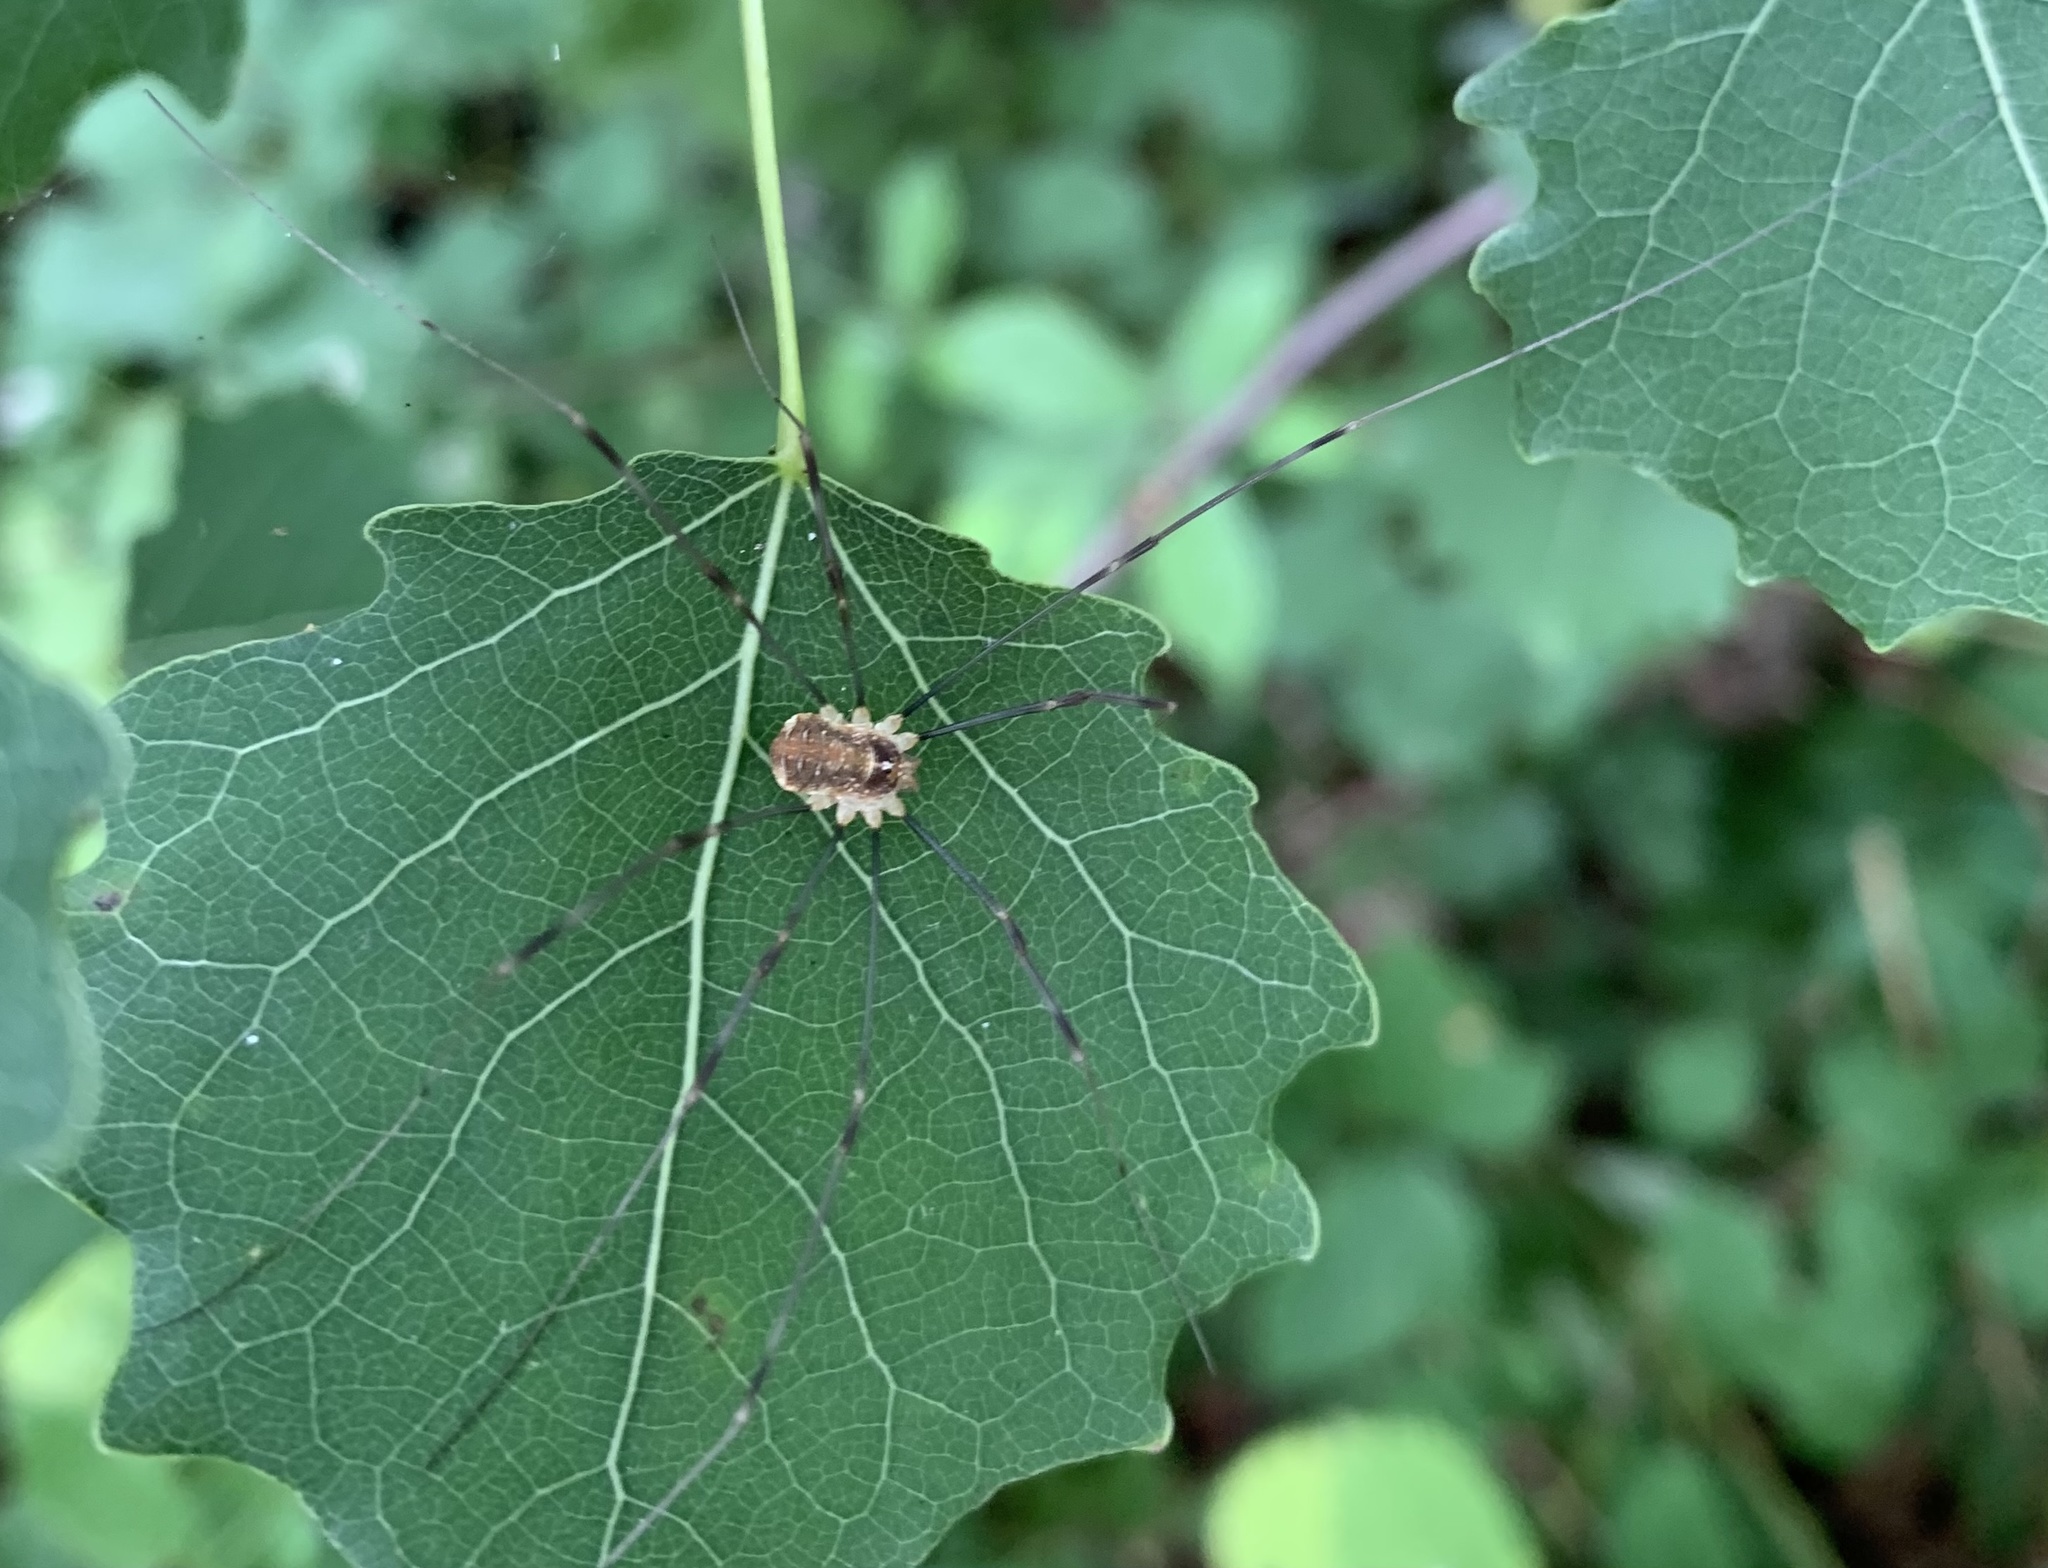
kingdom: Animalia
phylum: Arthropoda
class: Arachnida
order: Opiliones
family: Phalangiidae
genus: Opilio
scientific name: Opilio canestrinii
